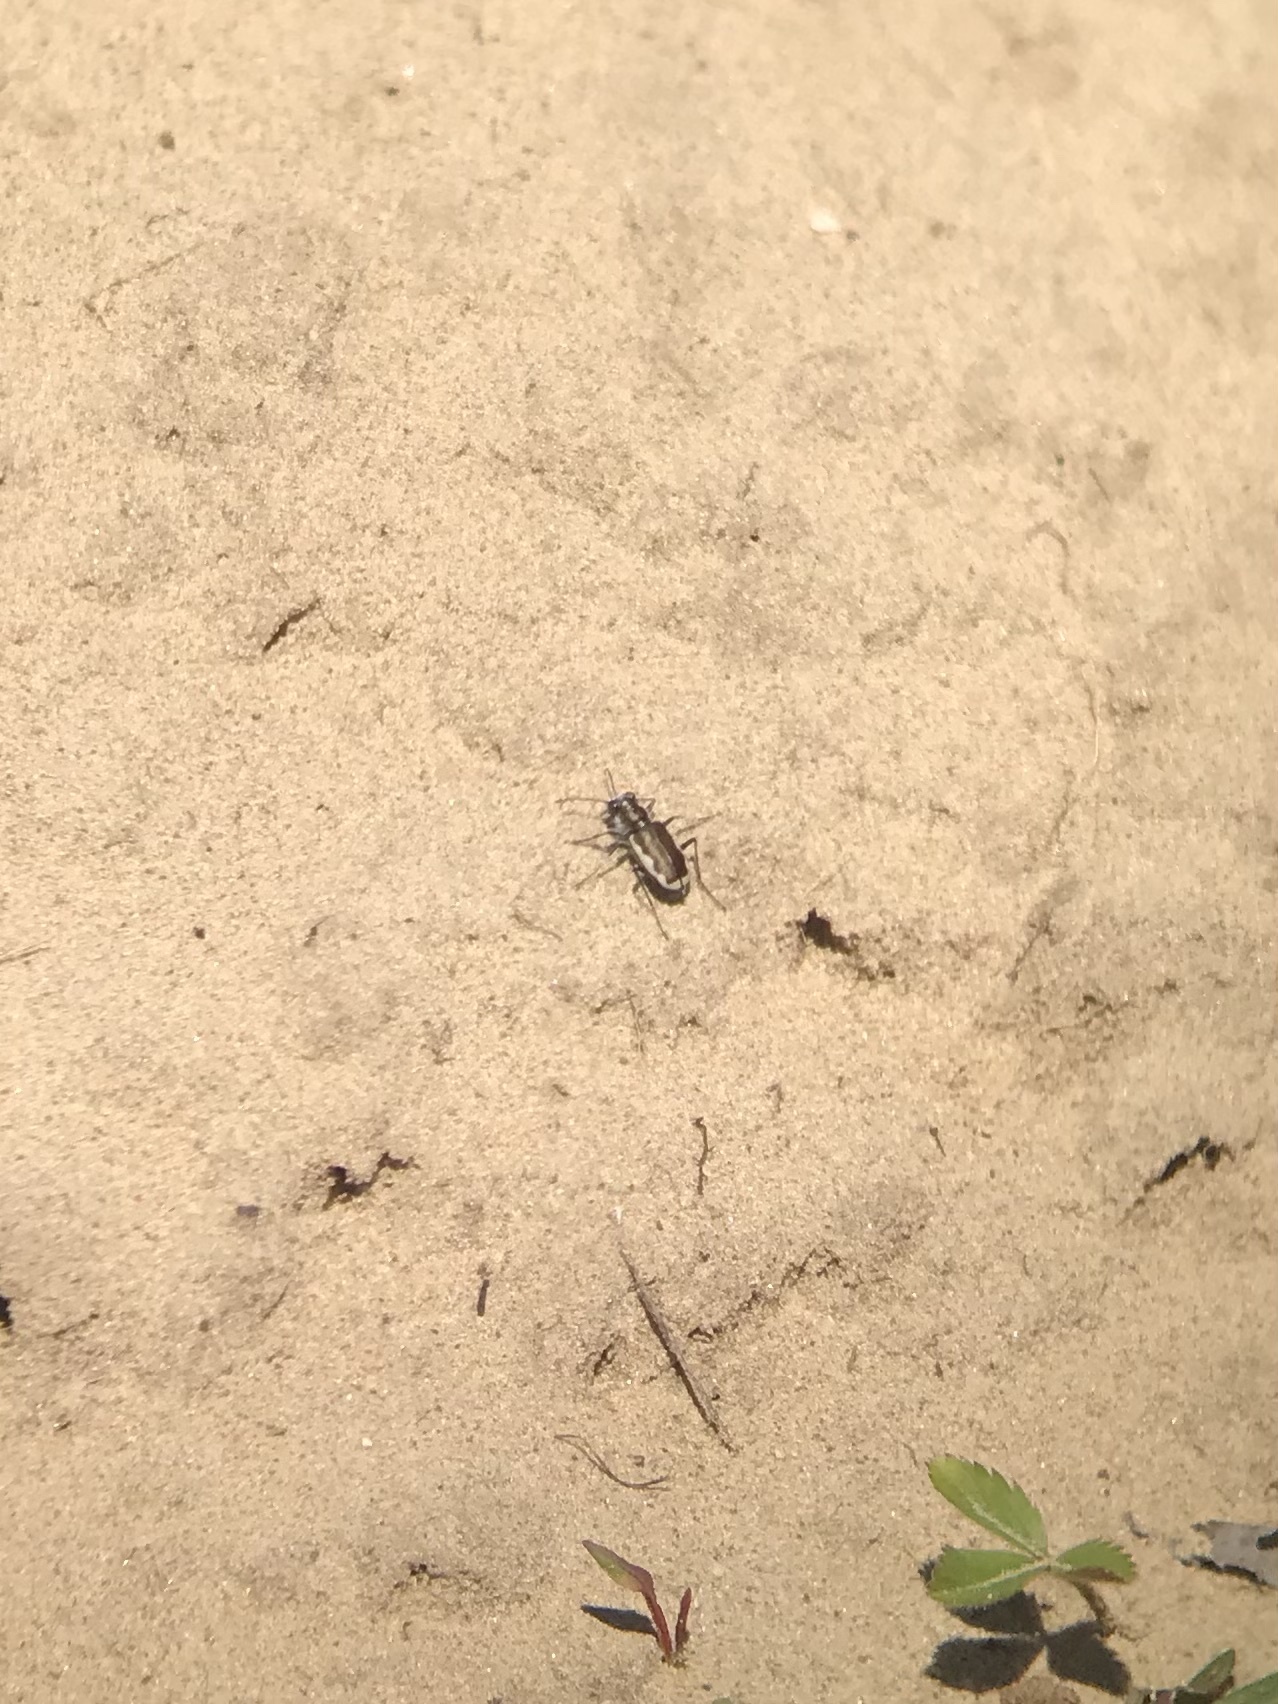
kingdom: Animalia
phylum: Arthropoda
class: Insecta
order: Coleoptera
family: Carabidae
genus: Cicindela
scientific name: Cicindela scutellaris
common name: Festive tiger beetle
